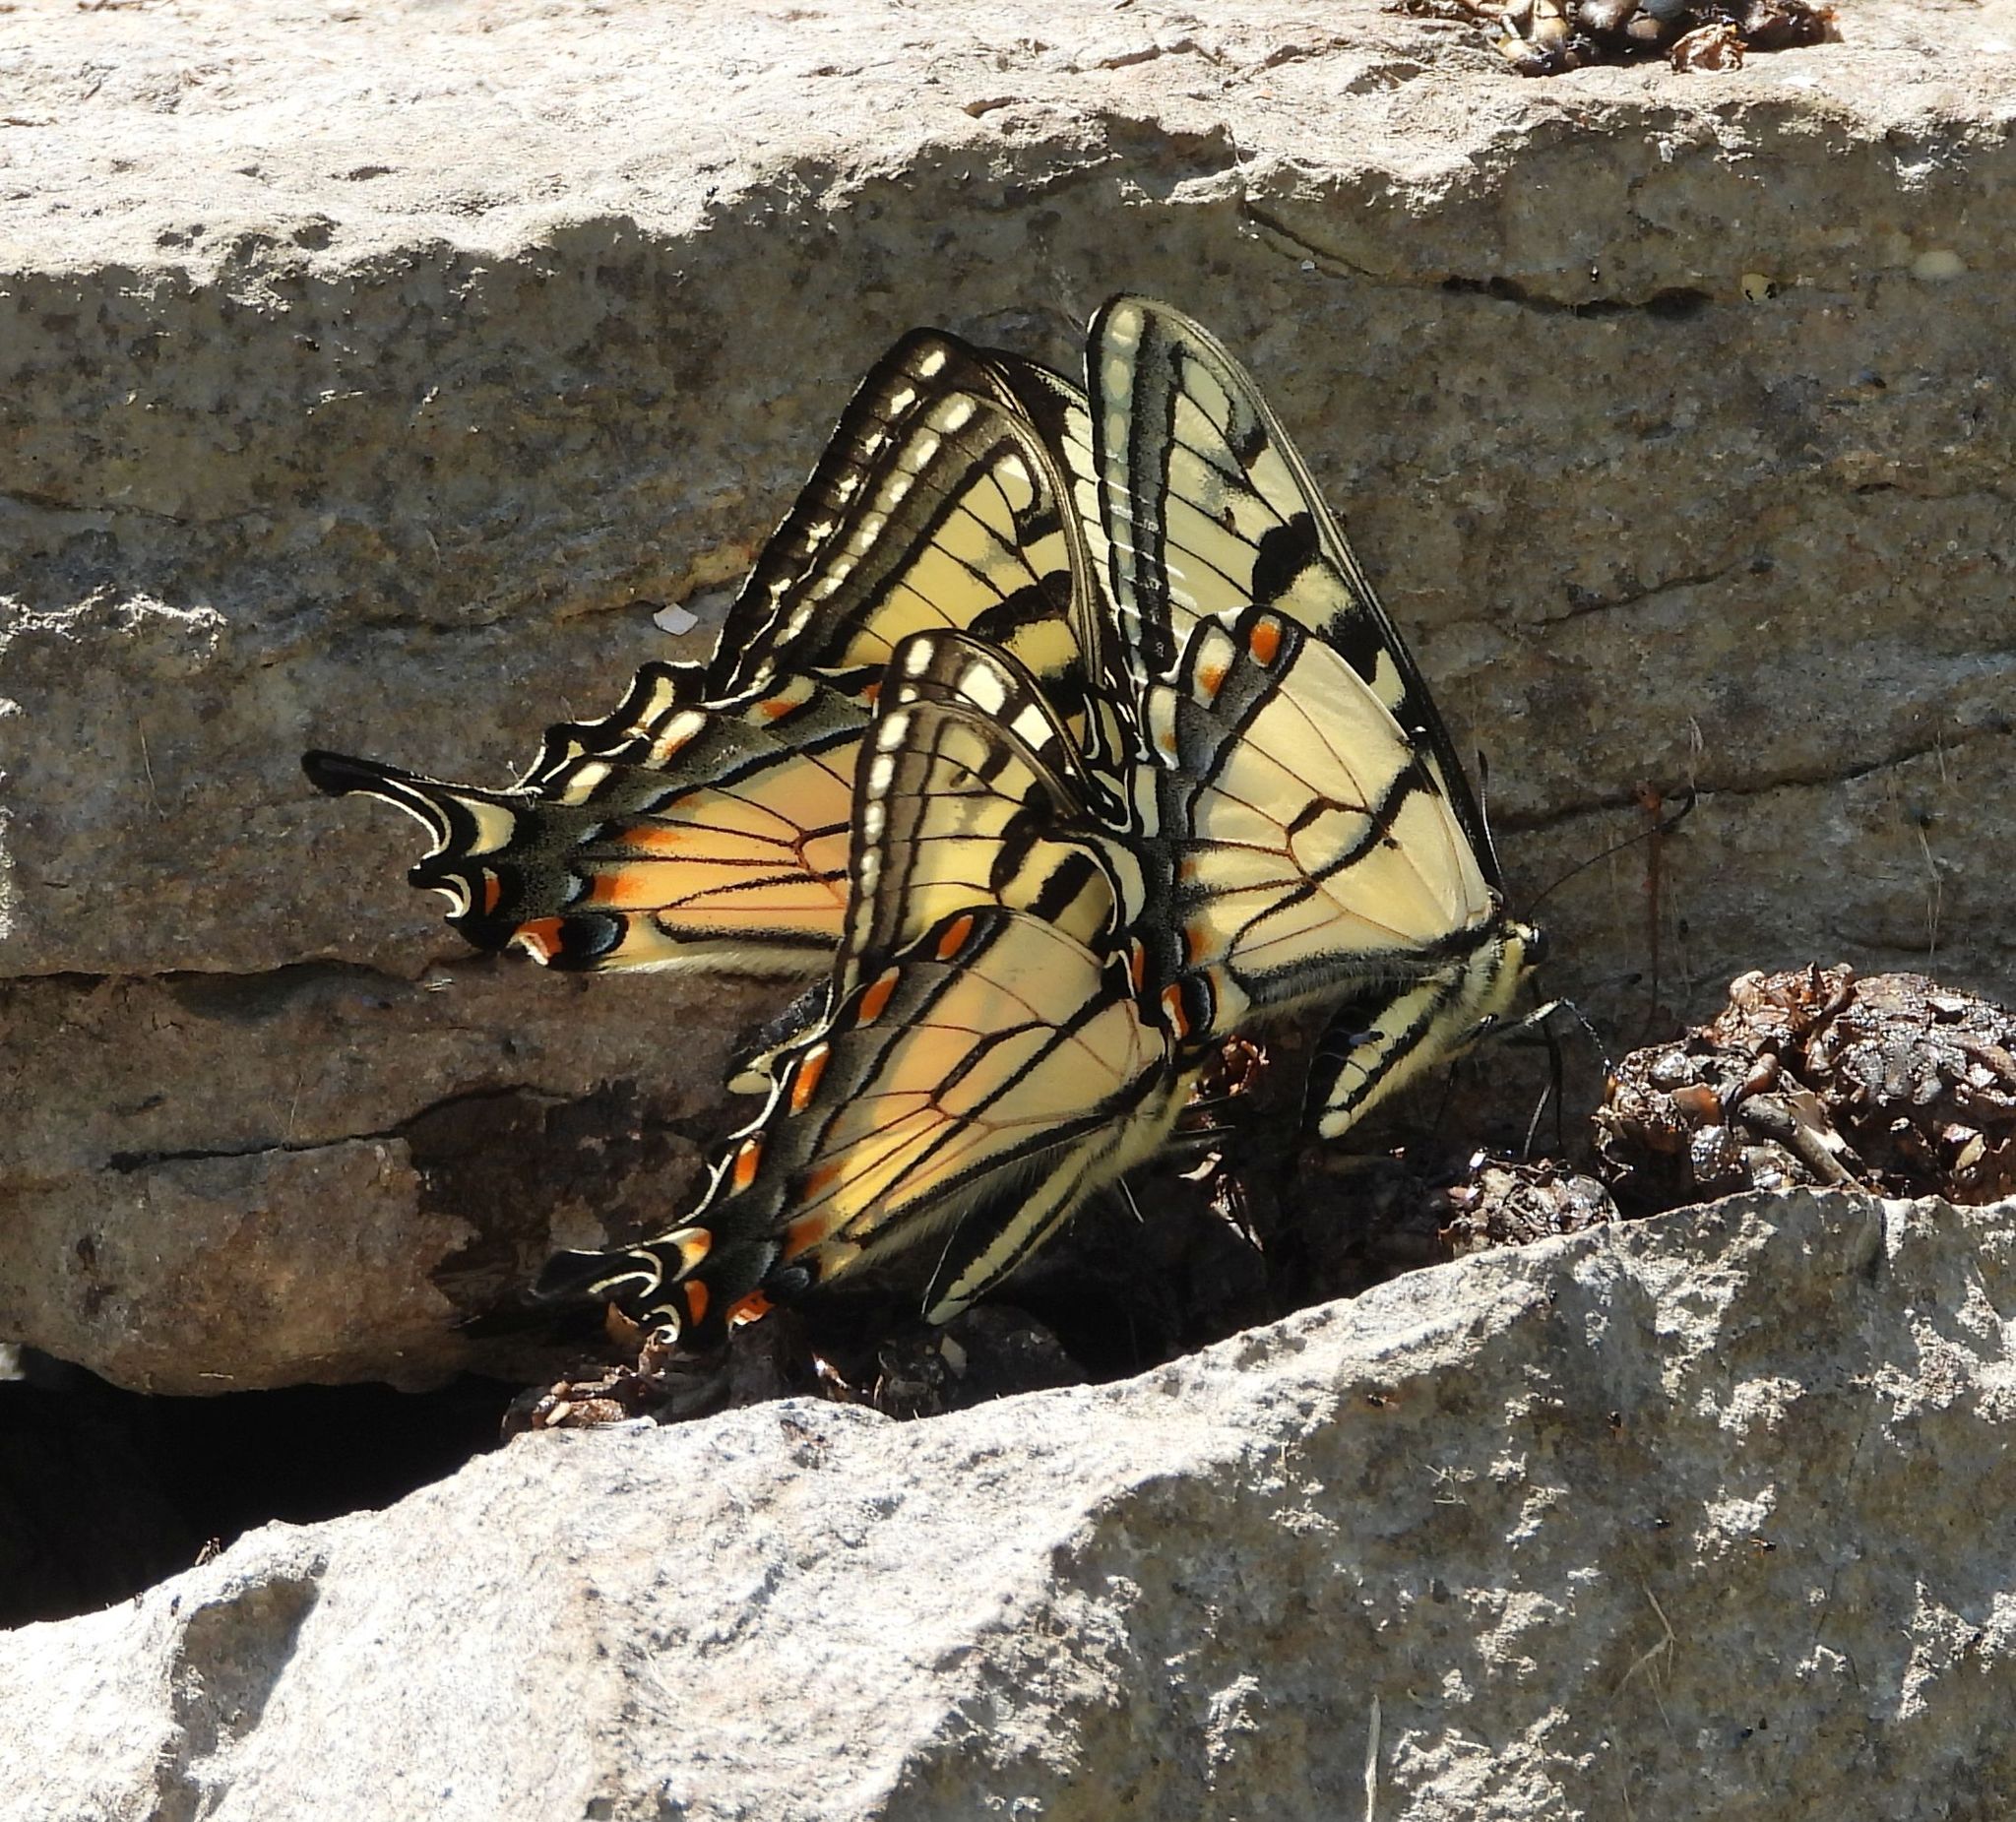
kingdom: Animalia
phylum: Arthropoda
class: Insecta
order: Lepidoptera
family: Papilionidae
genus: Papilio
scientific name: Papilio
